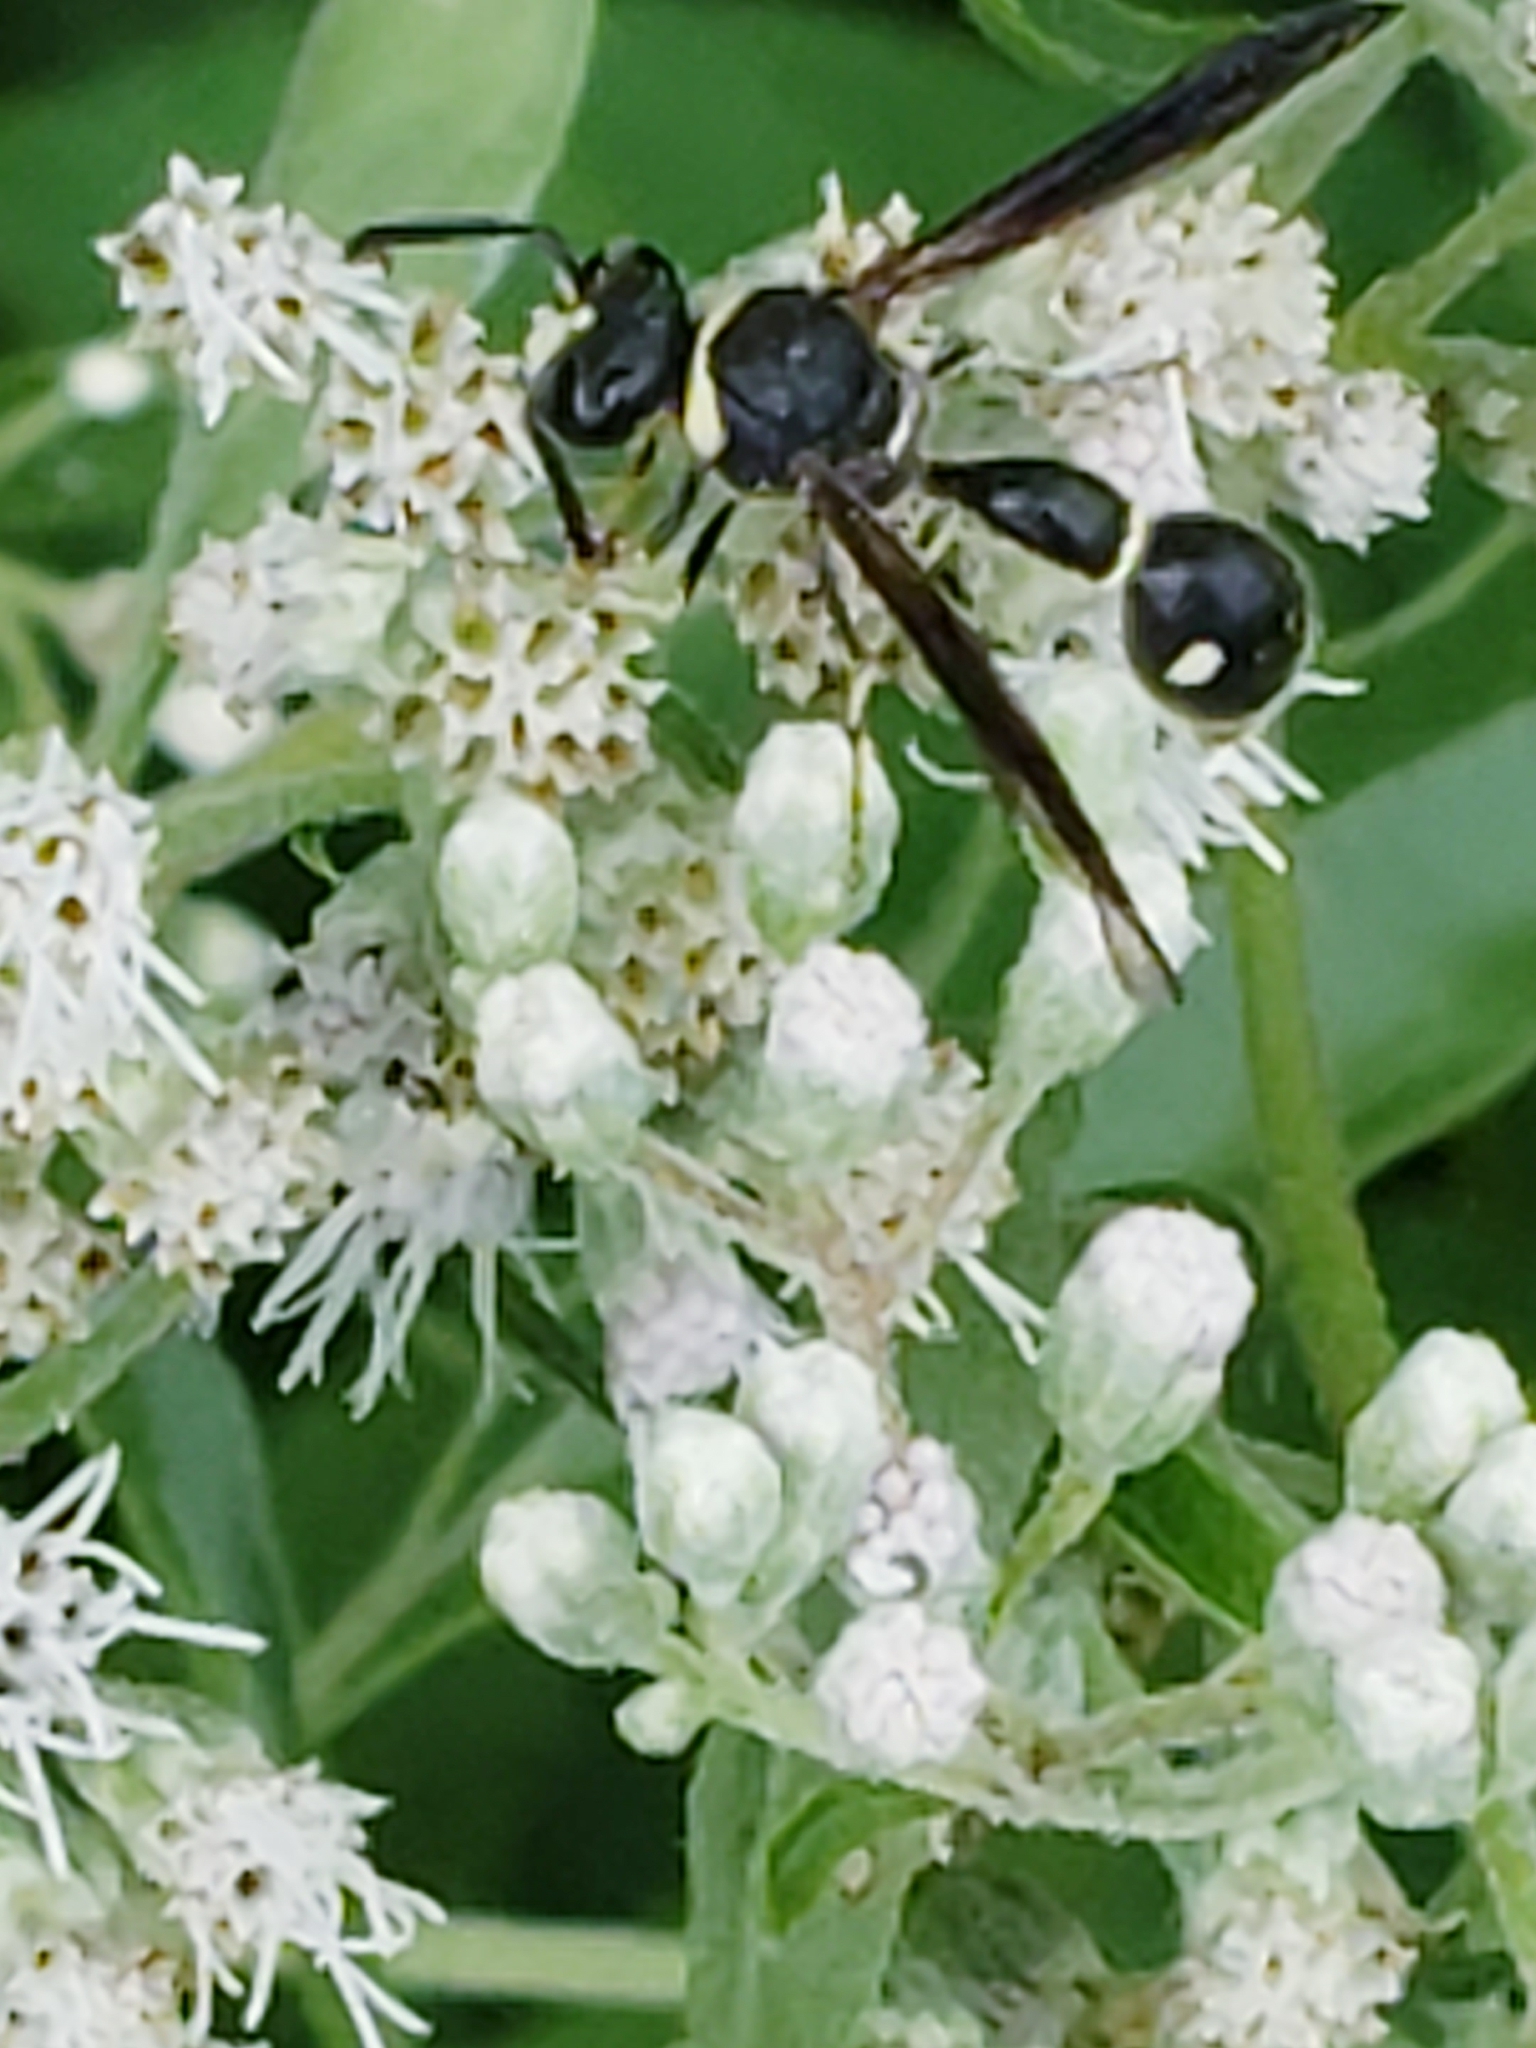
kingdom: Animalia
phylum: Arthropoda
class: Insecta
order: Hymenoptera
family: Vespidae
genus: Eumenes
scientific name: Eumenes fraternus
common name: Fraternal potter wasp
